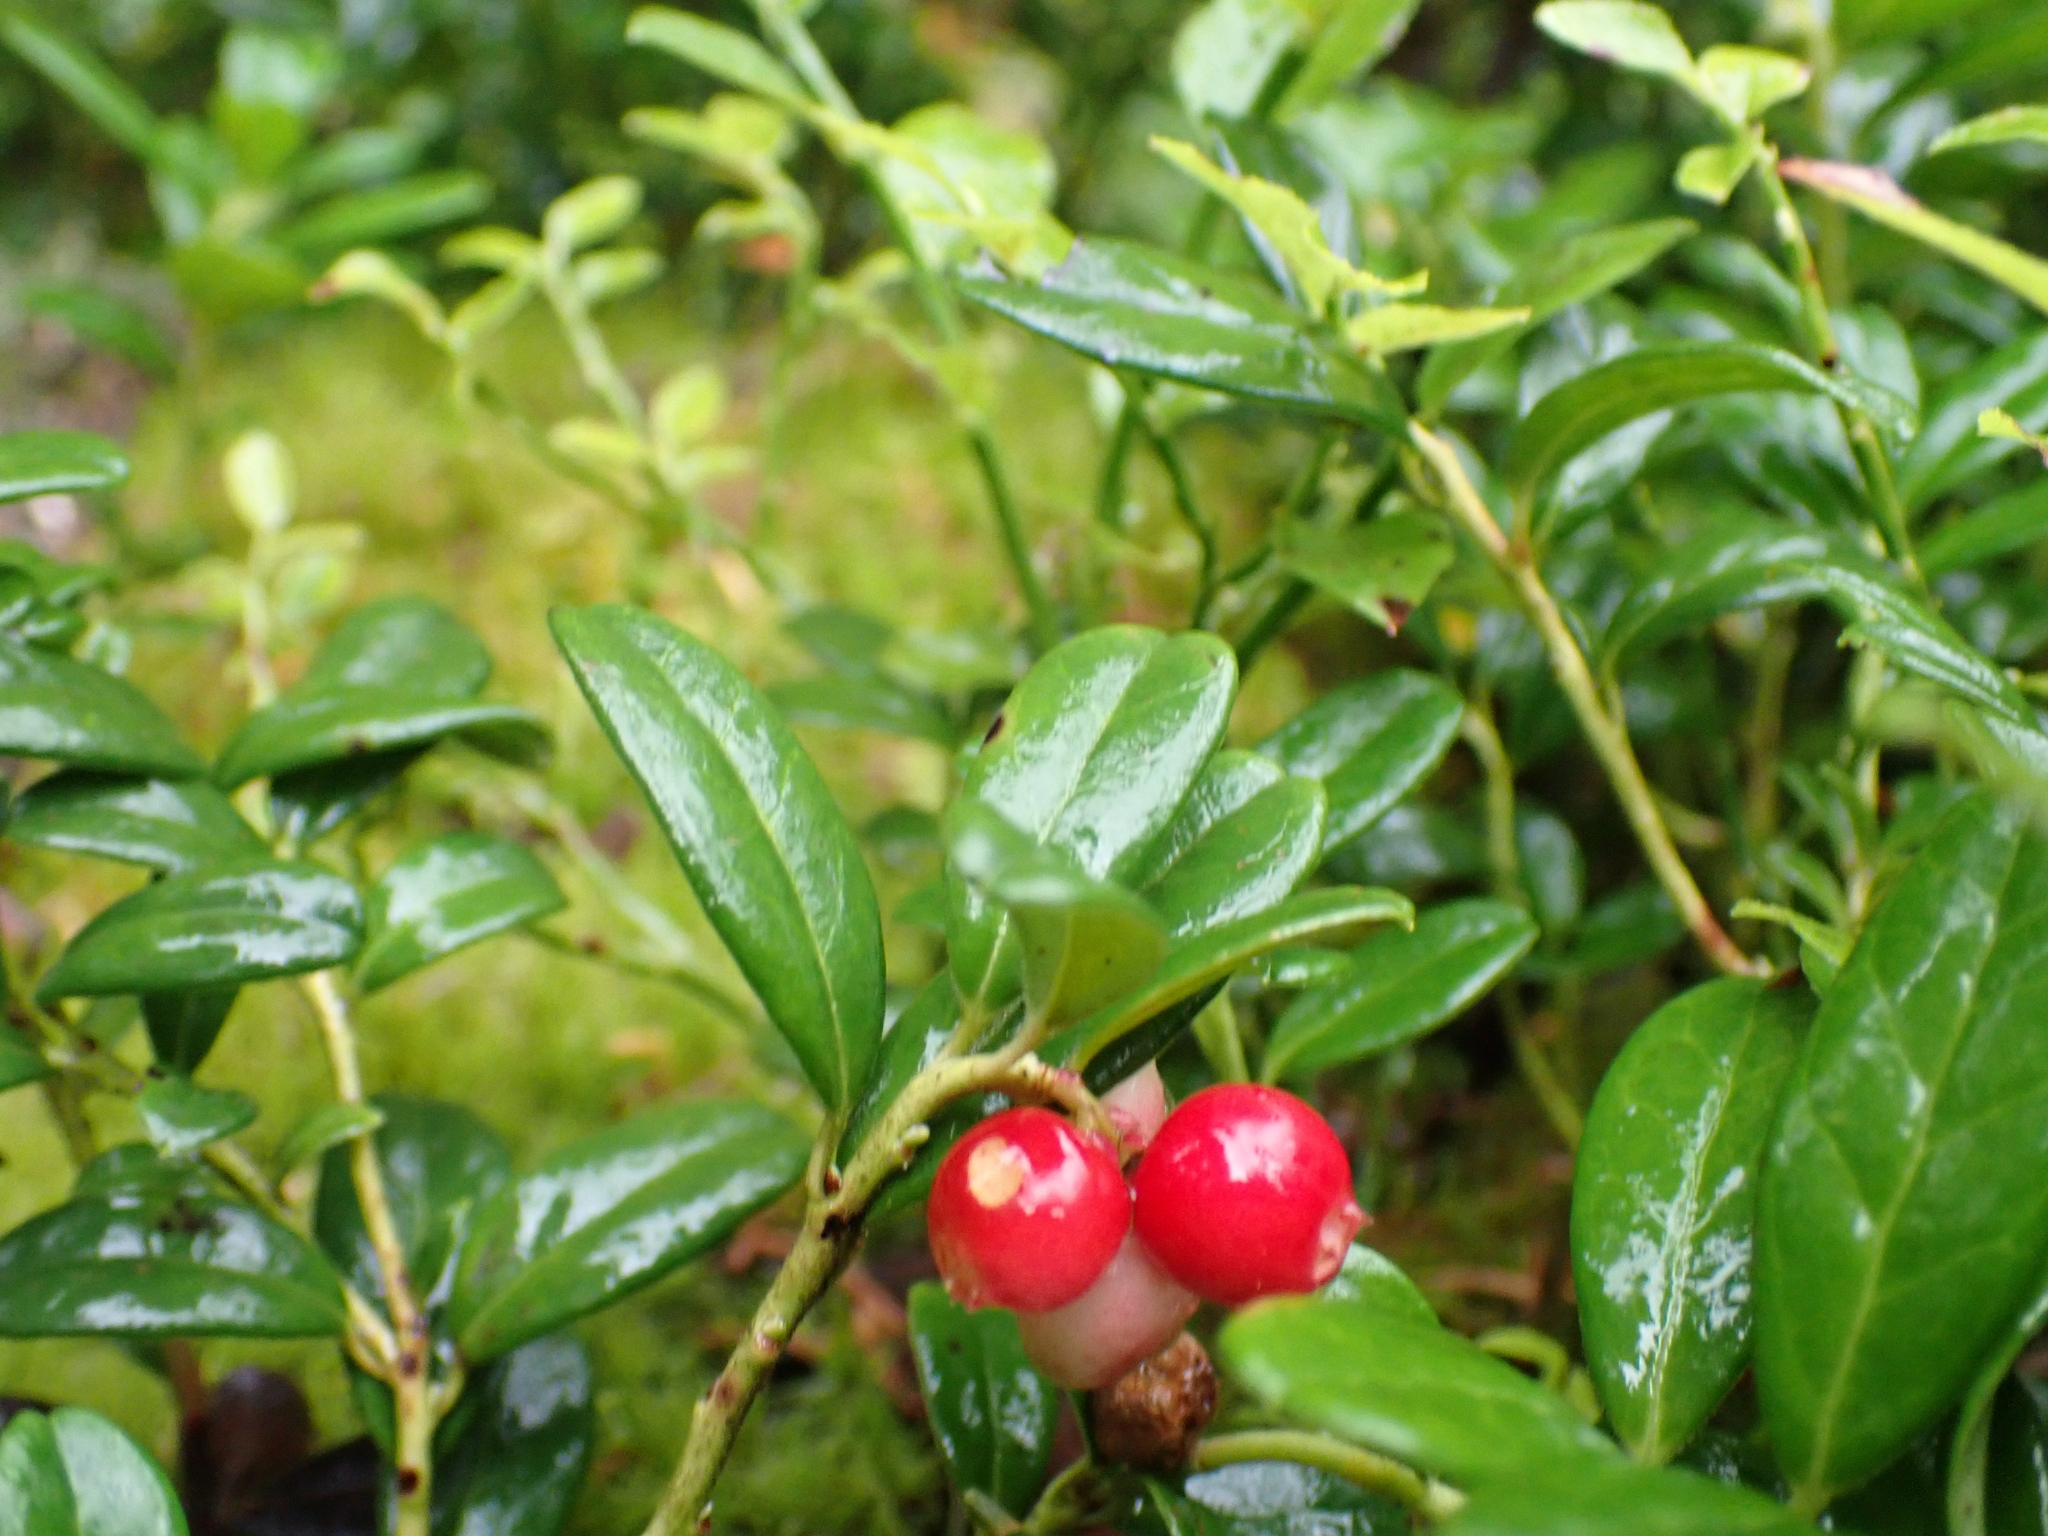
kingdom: Plantae
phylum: Tracheophyta
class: Magnoliopsida
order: Ericales
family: Ericaceae
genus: Vaccinium
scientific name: Vaccinium vitis-idaea
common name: Cowberry
